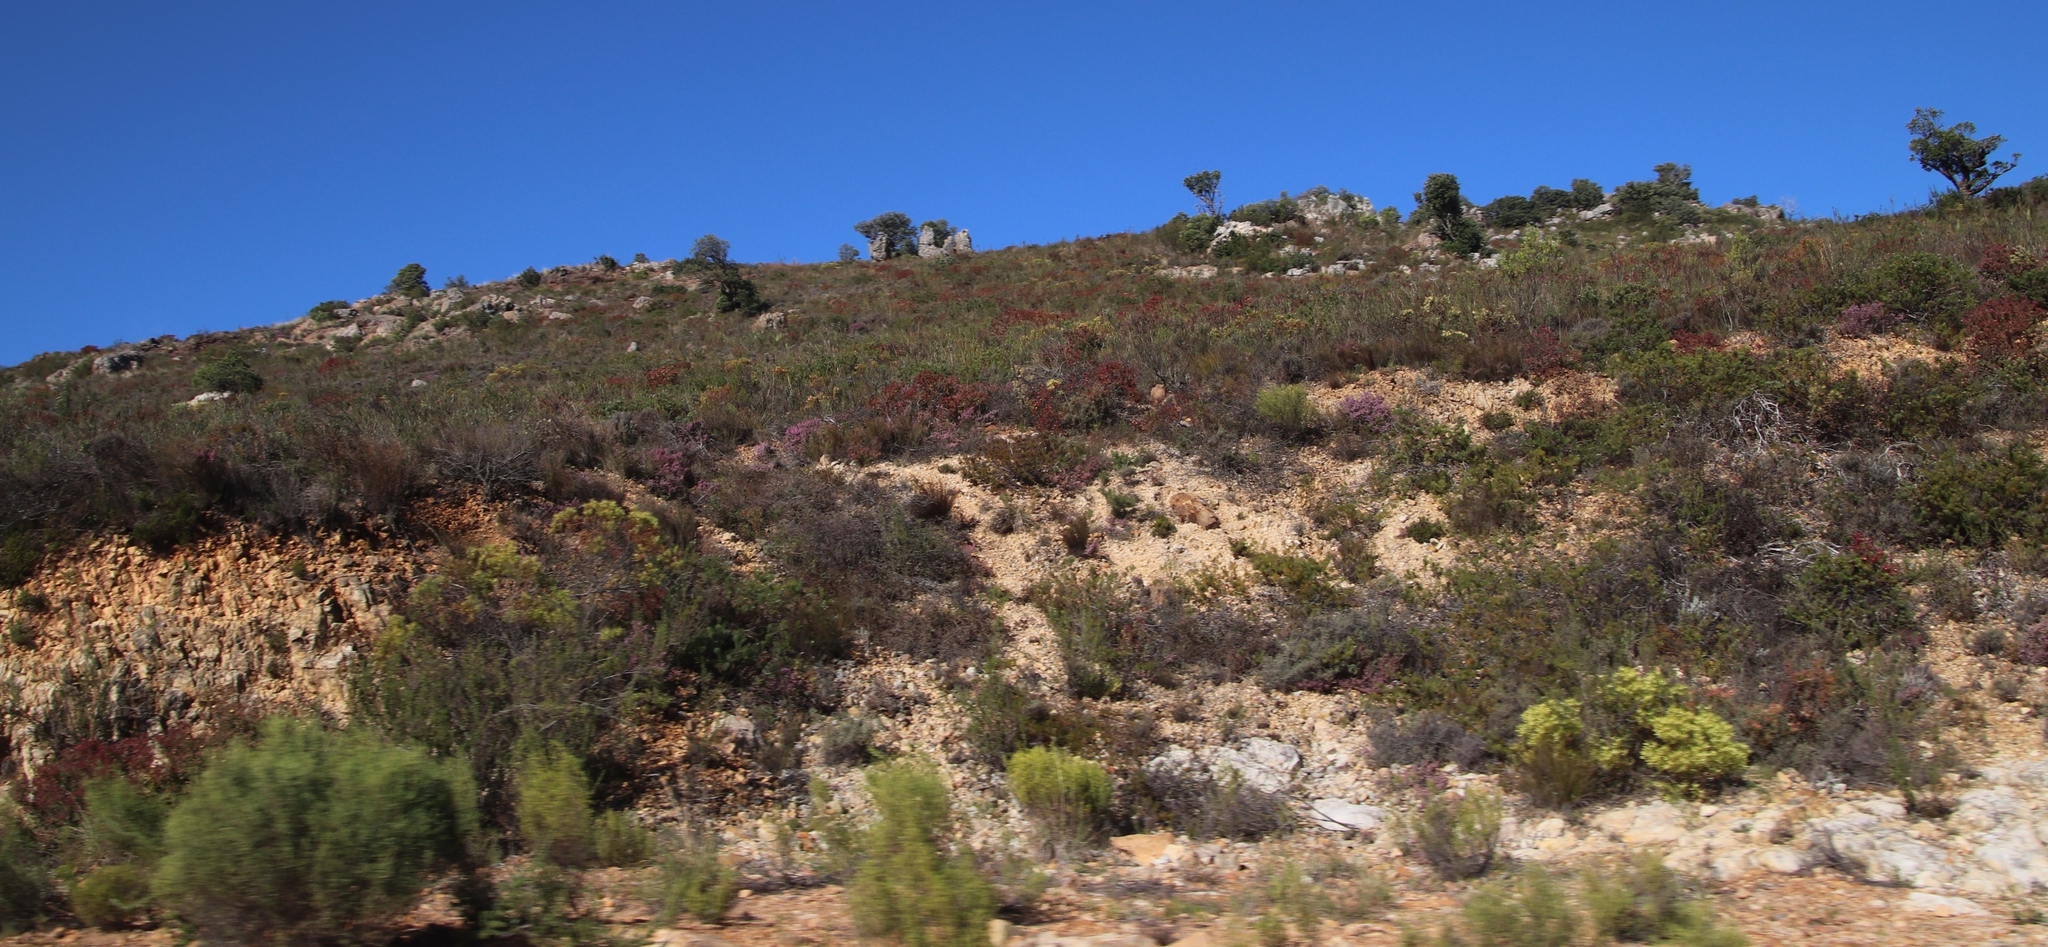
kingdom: Plantae
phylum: Tracheophyta
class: Magnoliopsida
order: Proteales
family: Proteaceae
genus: Leucadendron
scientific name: Leucadendron glaberrimum
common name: Common oily conebush
